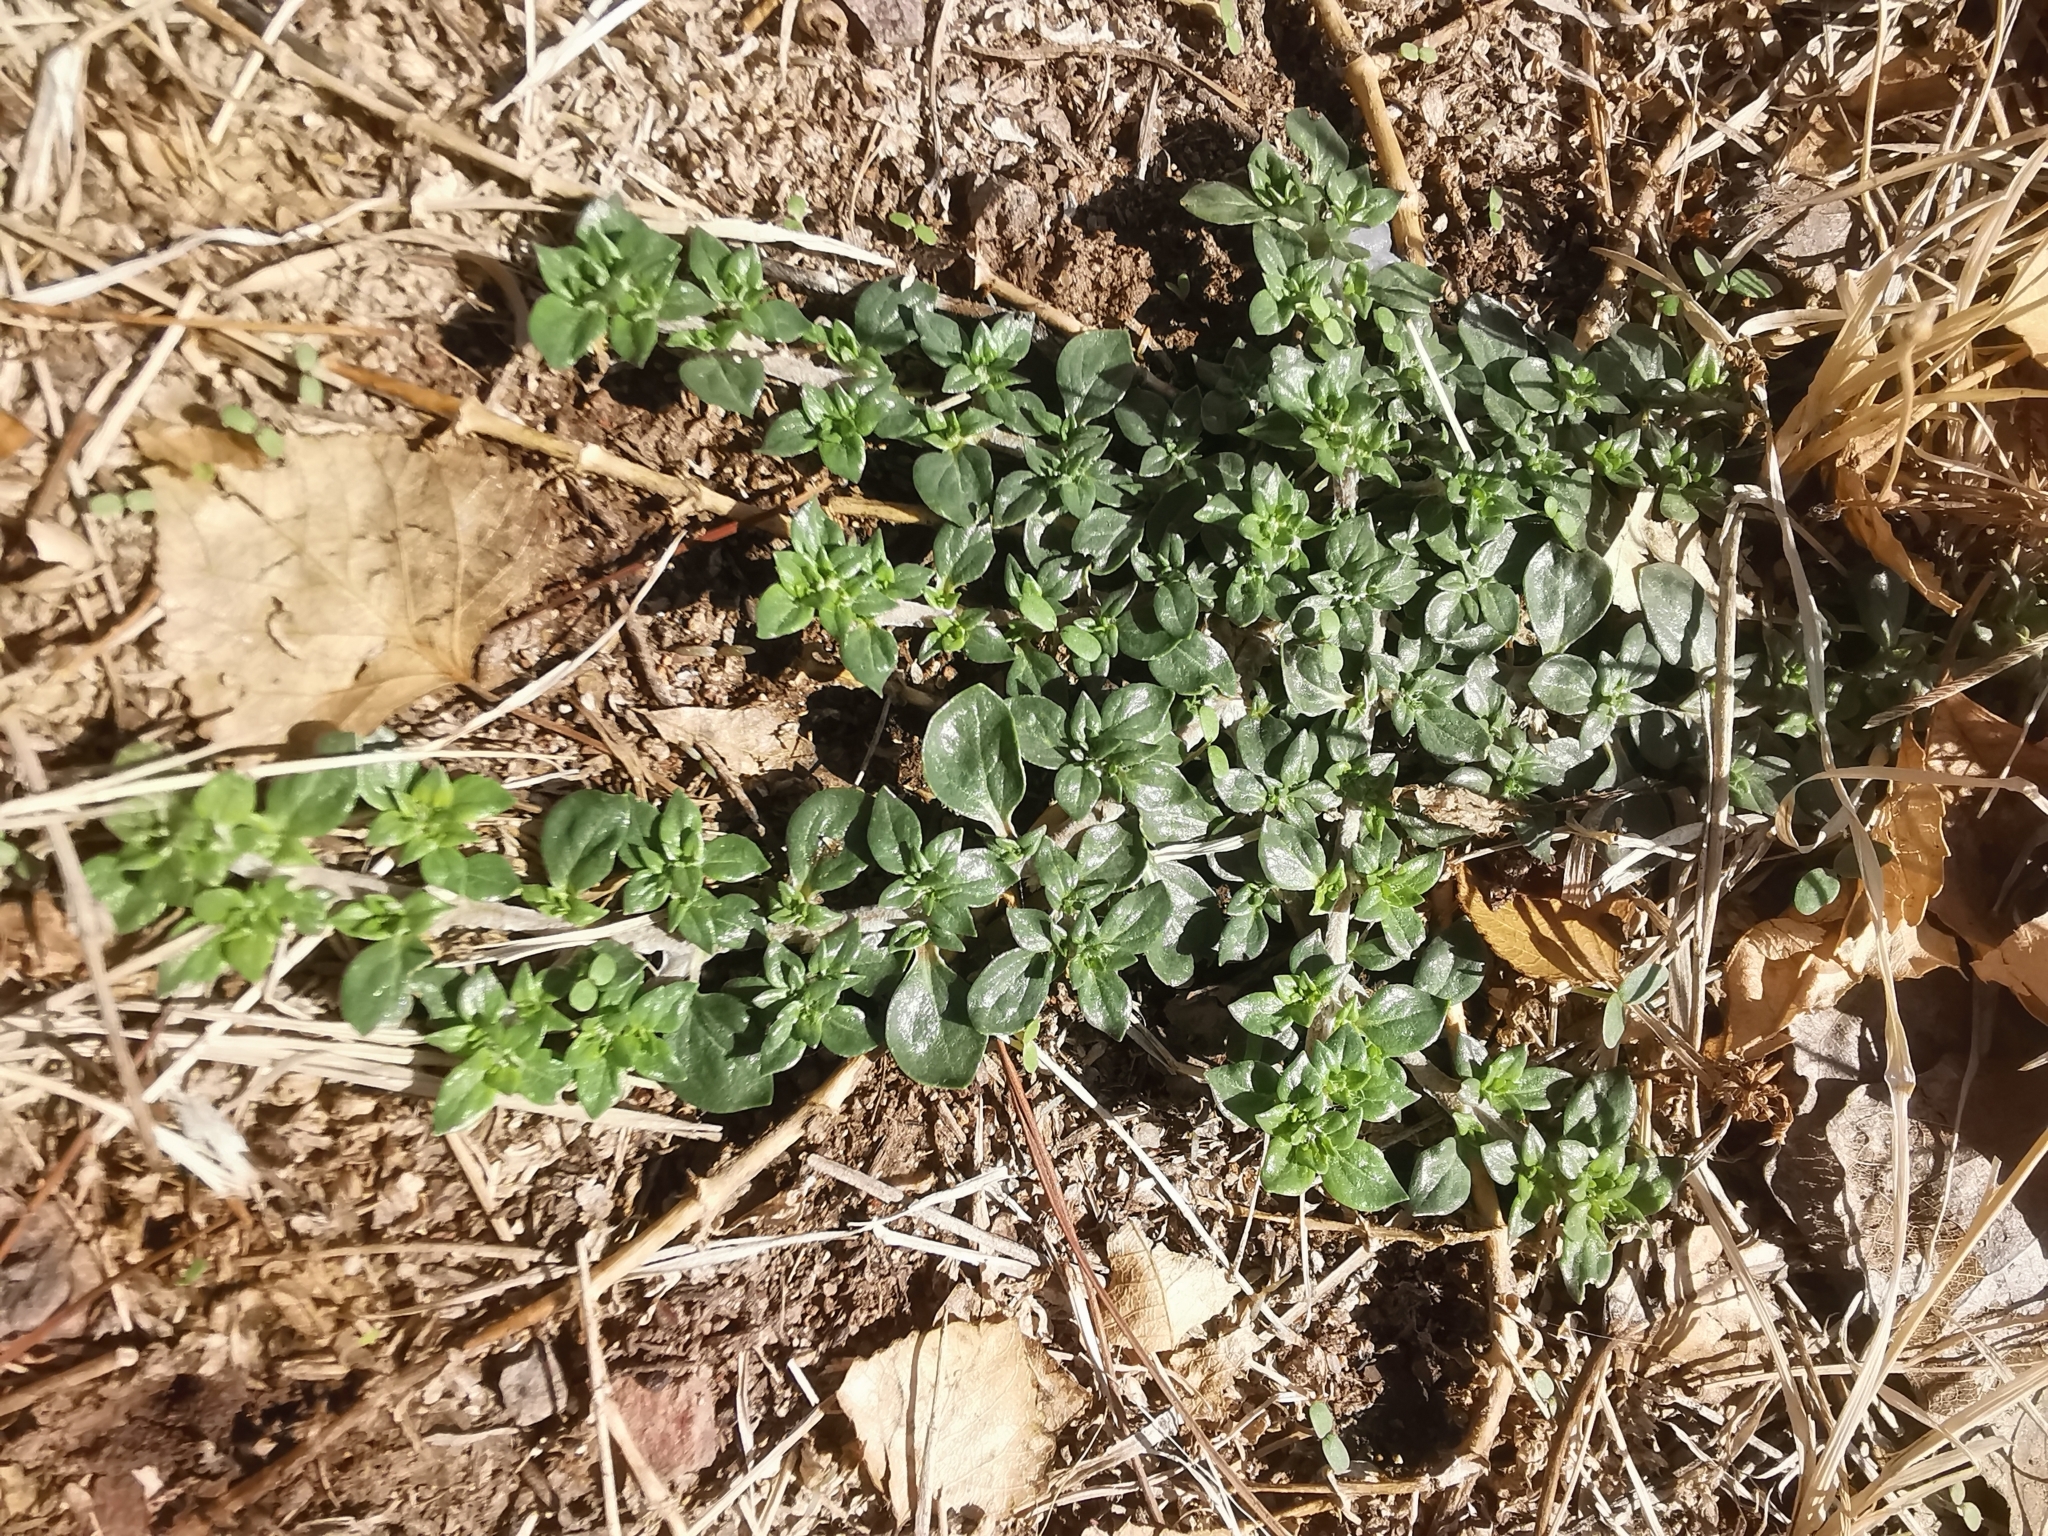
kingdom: Plantae
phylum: Tracheophyta
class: Magnoliopsida
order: Caryophyllales
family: Amaranthaceae
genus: Alternanthera
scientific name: Alternanthera caracasana
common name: Washerwoman
